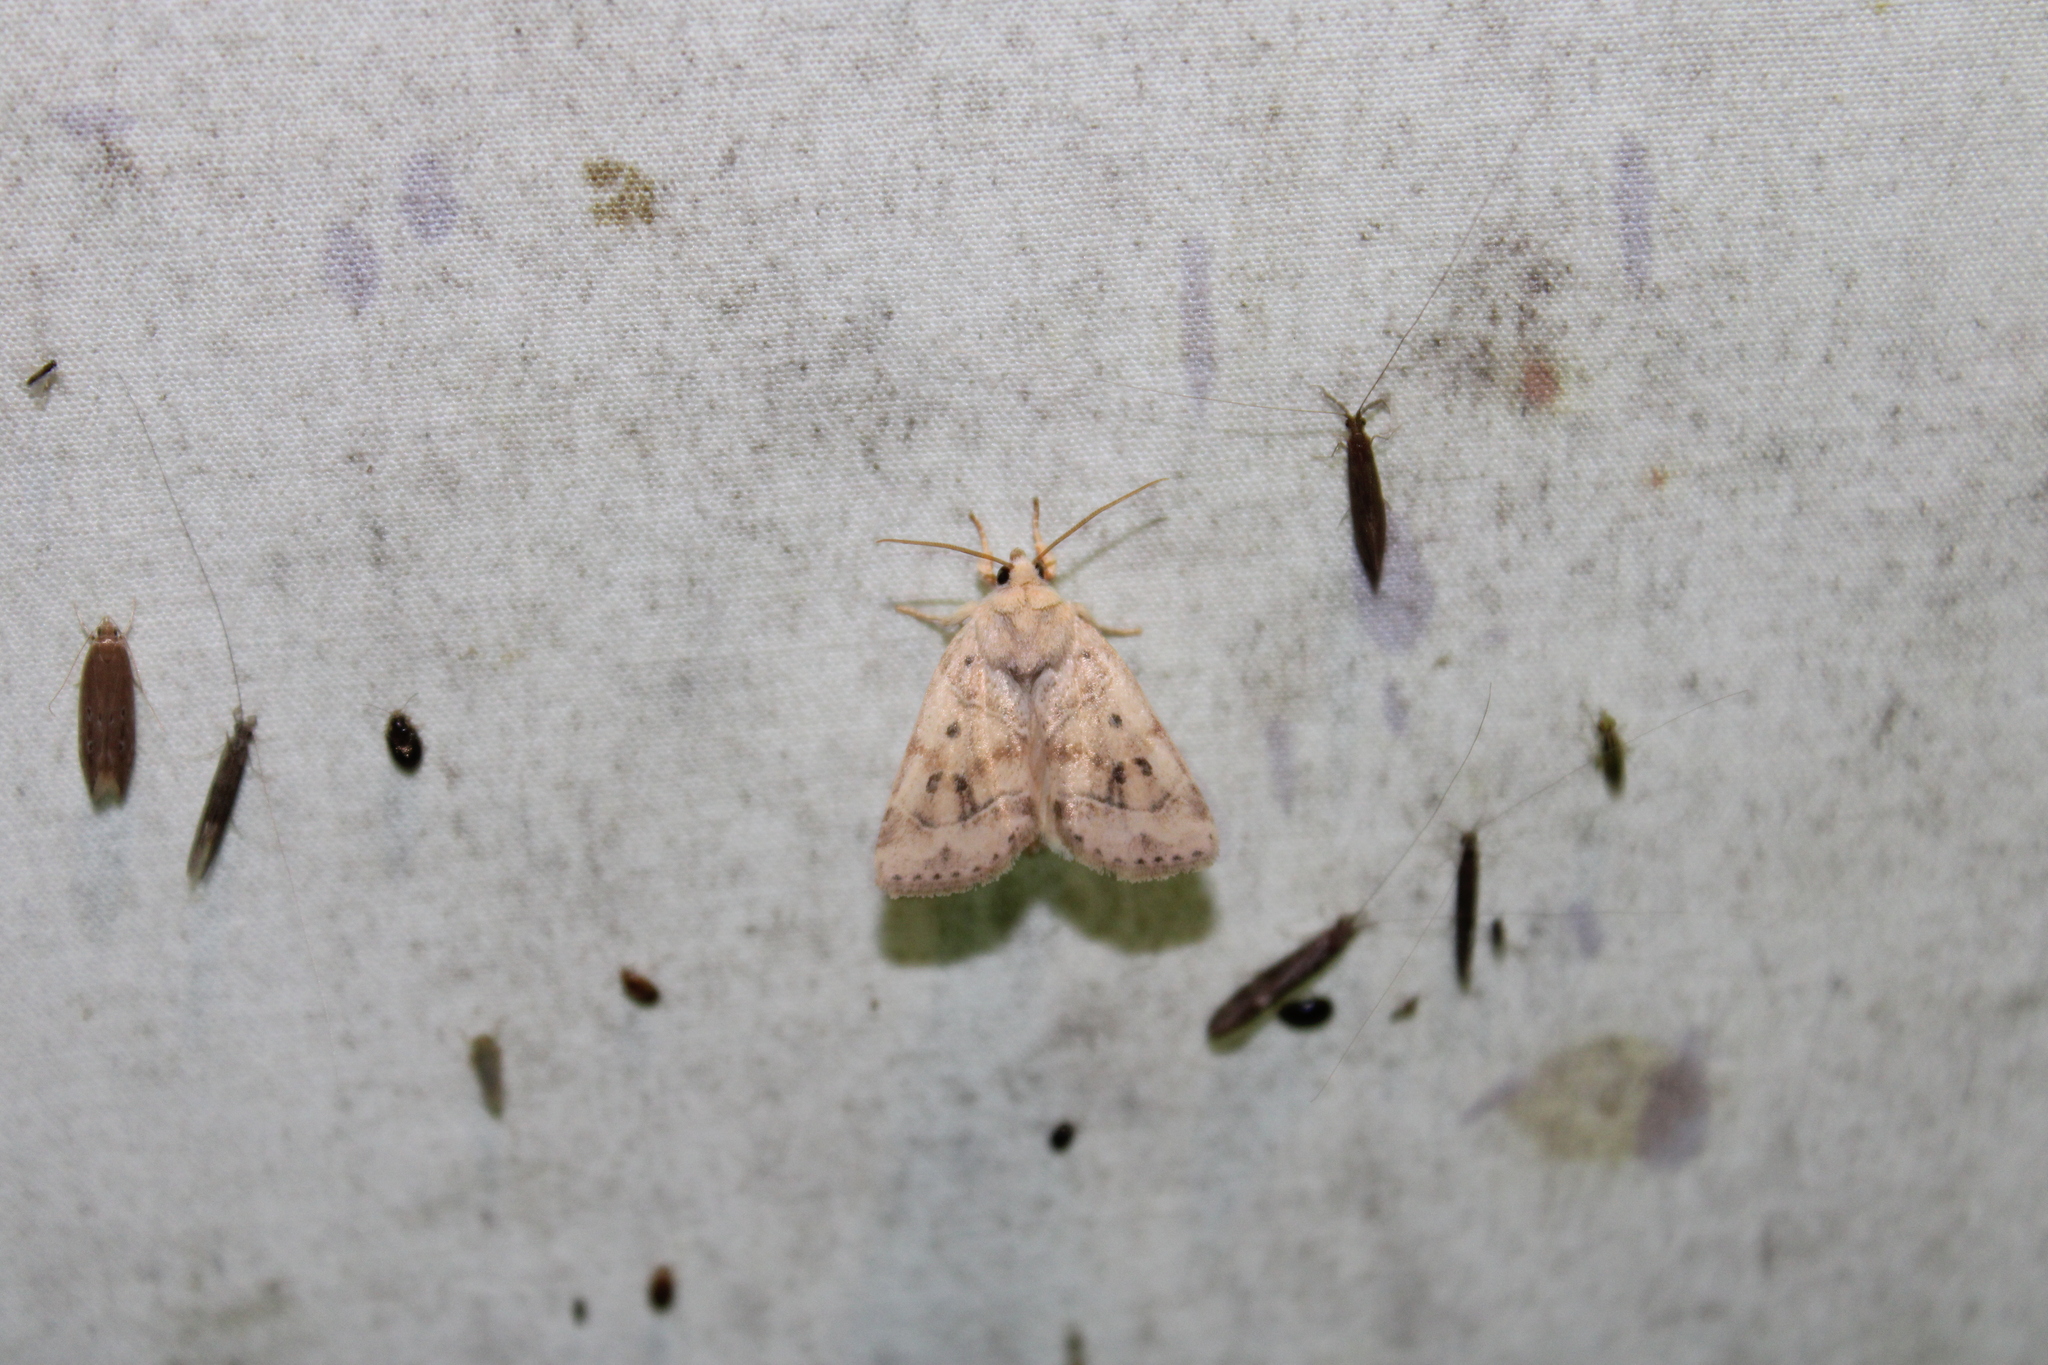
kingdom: Animalia
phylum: Arthropoda
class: Insecta
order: Lepidoptera
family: Noctuidae
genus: Cosmia
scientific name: Cosmia calami
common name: American dun-bar moth
